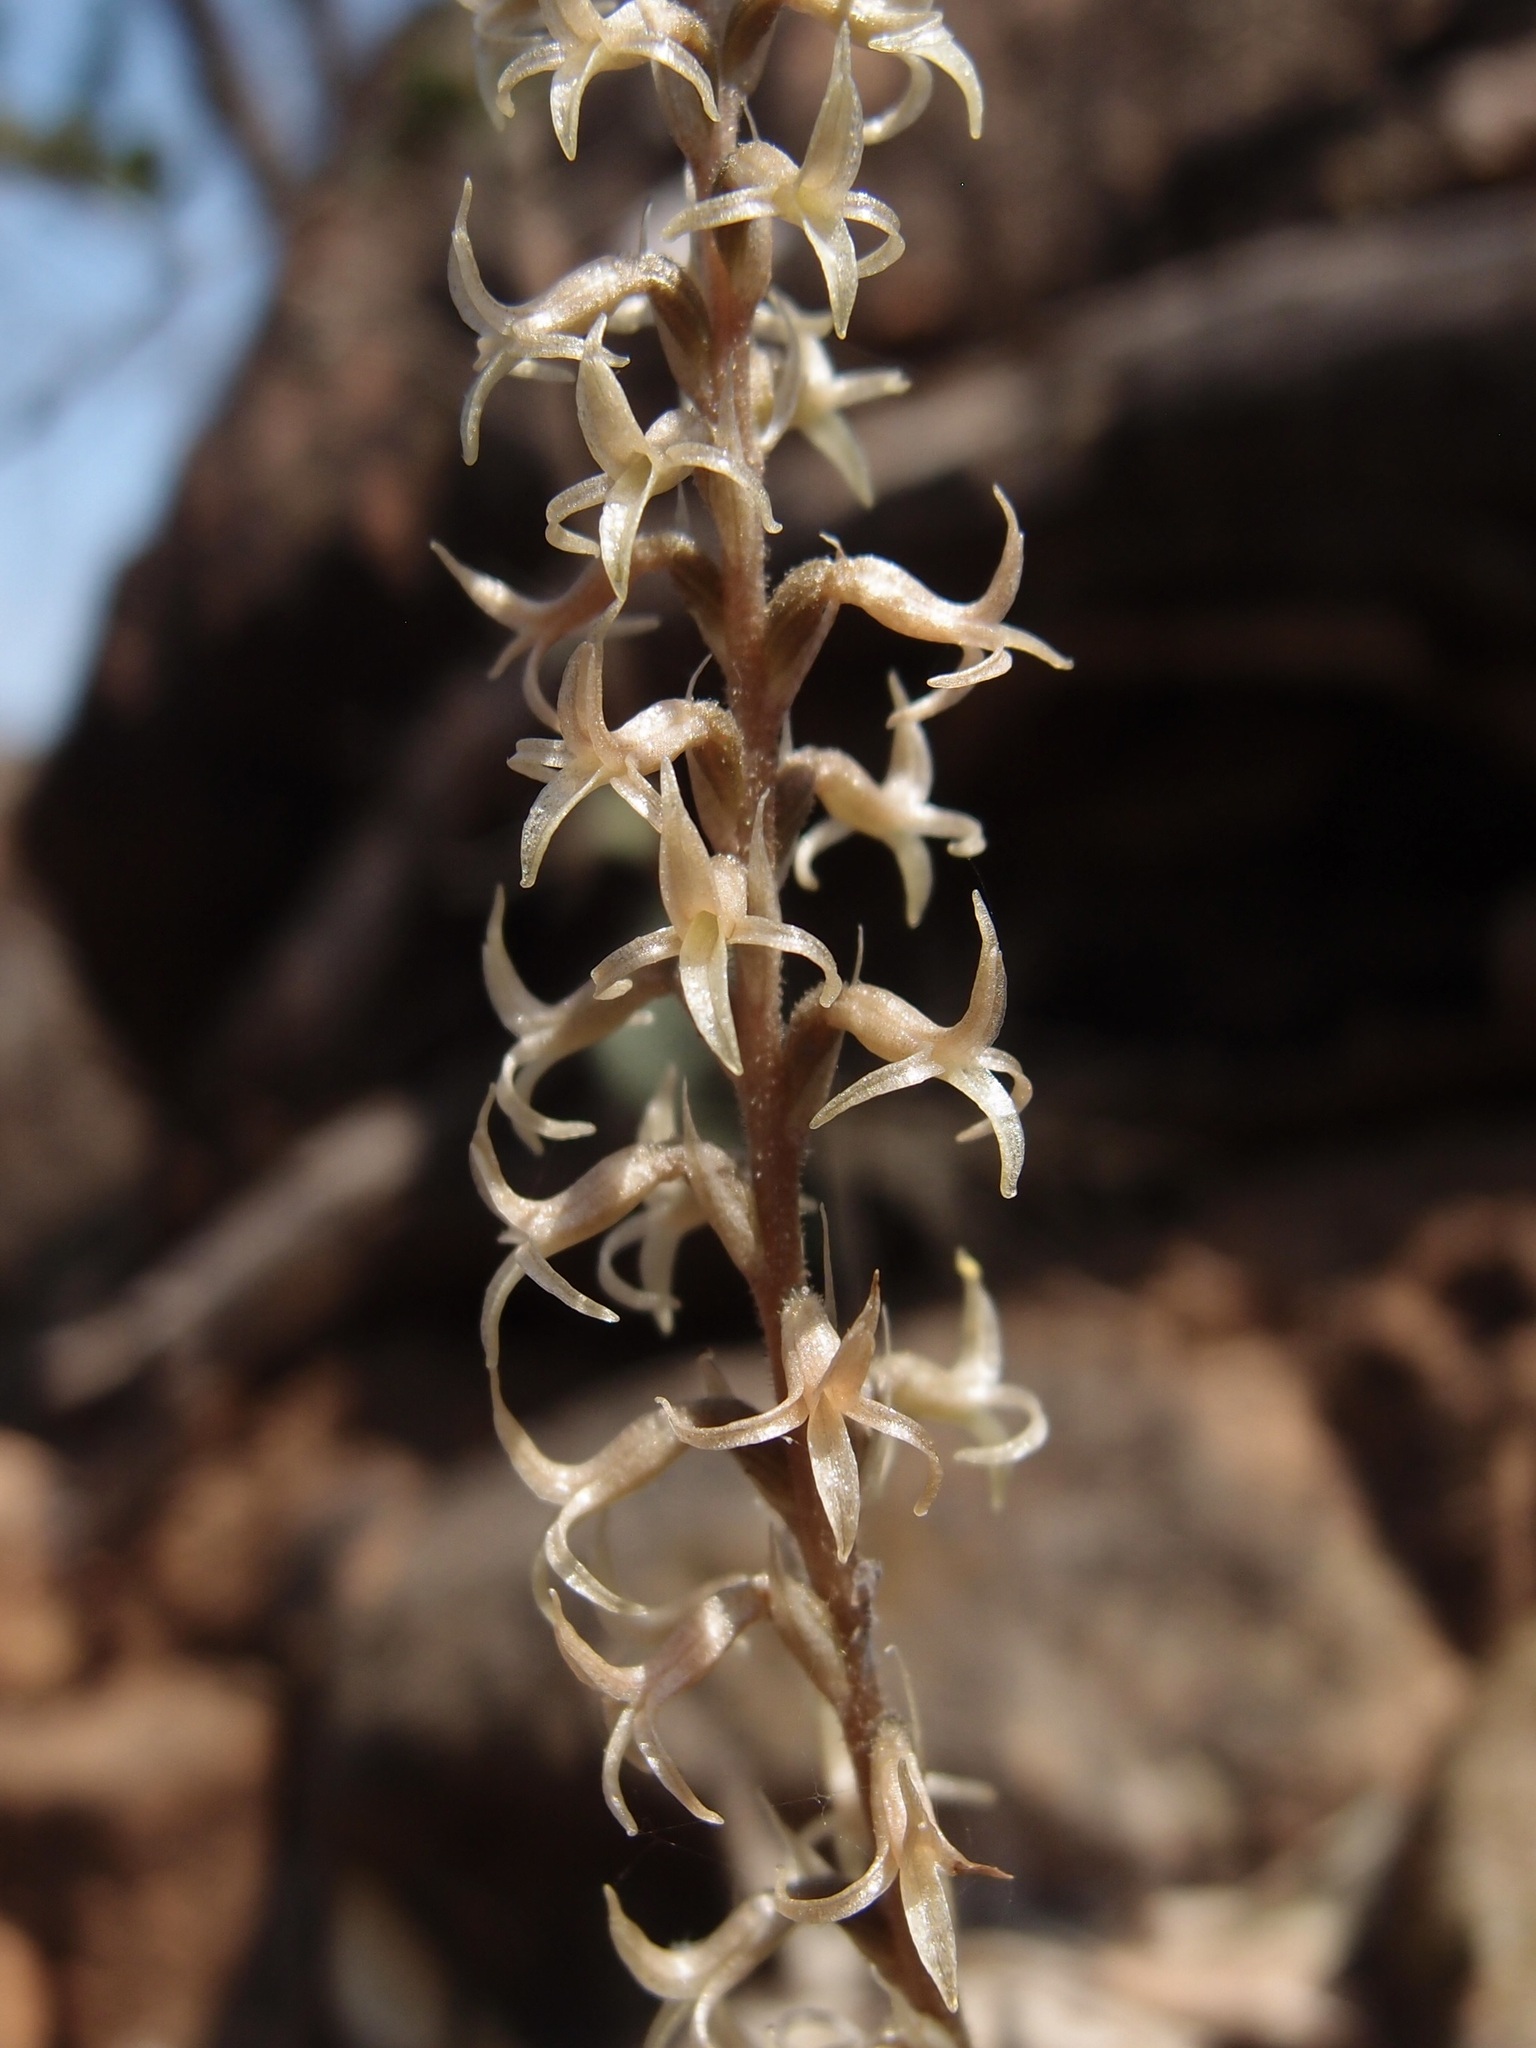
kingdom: Plantae
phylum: Tracheophyta
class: Liliopsida
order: Asparagales
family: Orchidaceae
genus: Mesadenus
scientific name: Mesadenus polyanthus
